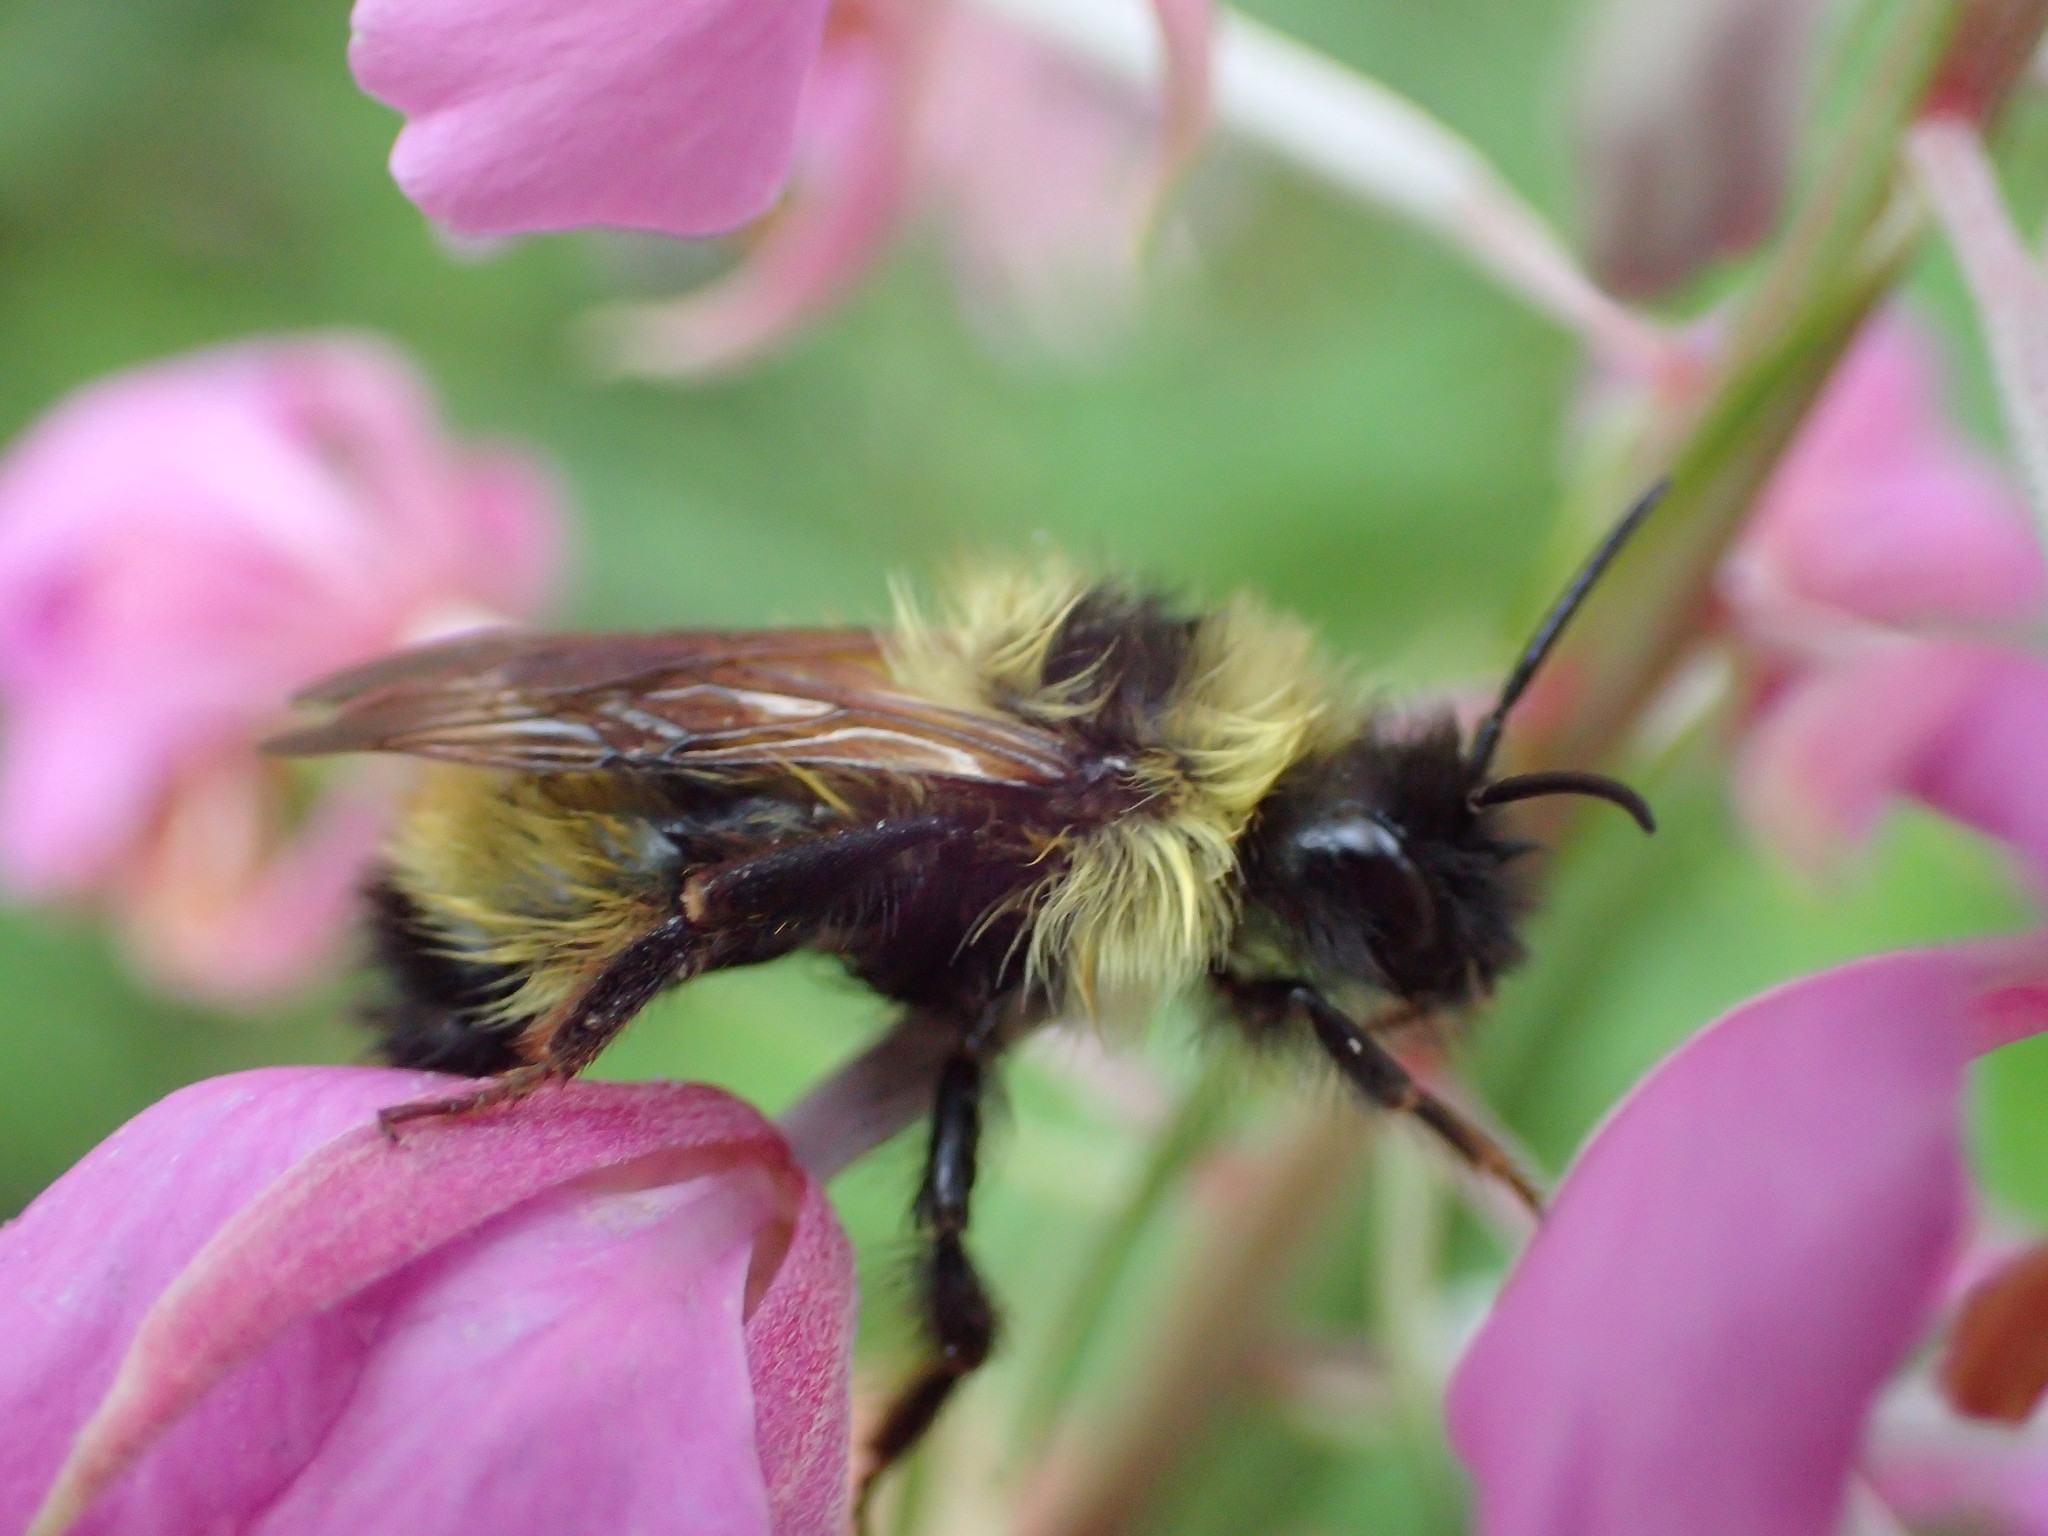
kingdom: Animalia
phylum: Arthropoda
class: Insecta
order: Hymenoptera
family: Apidae
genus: Bombus
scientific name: Bombus flavidus
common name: Fernald cuckoo bumble bee
